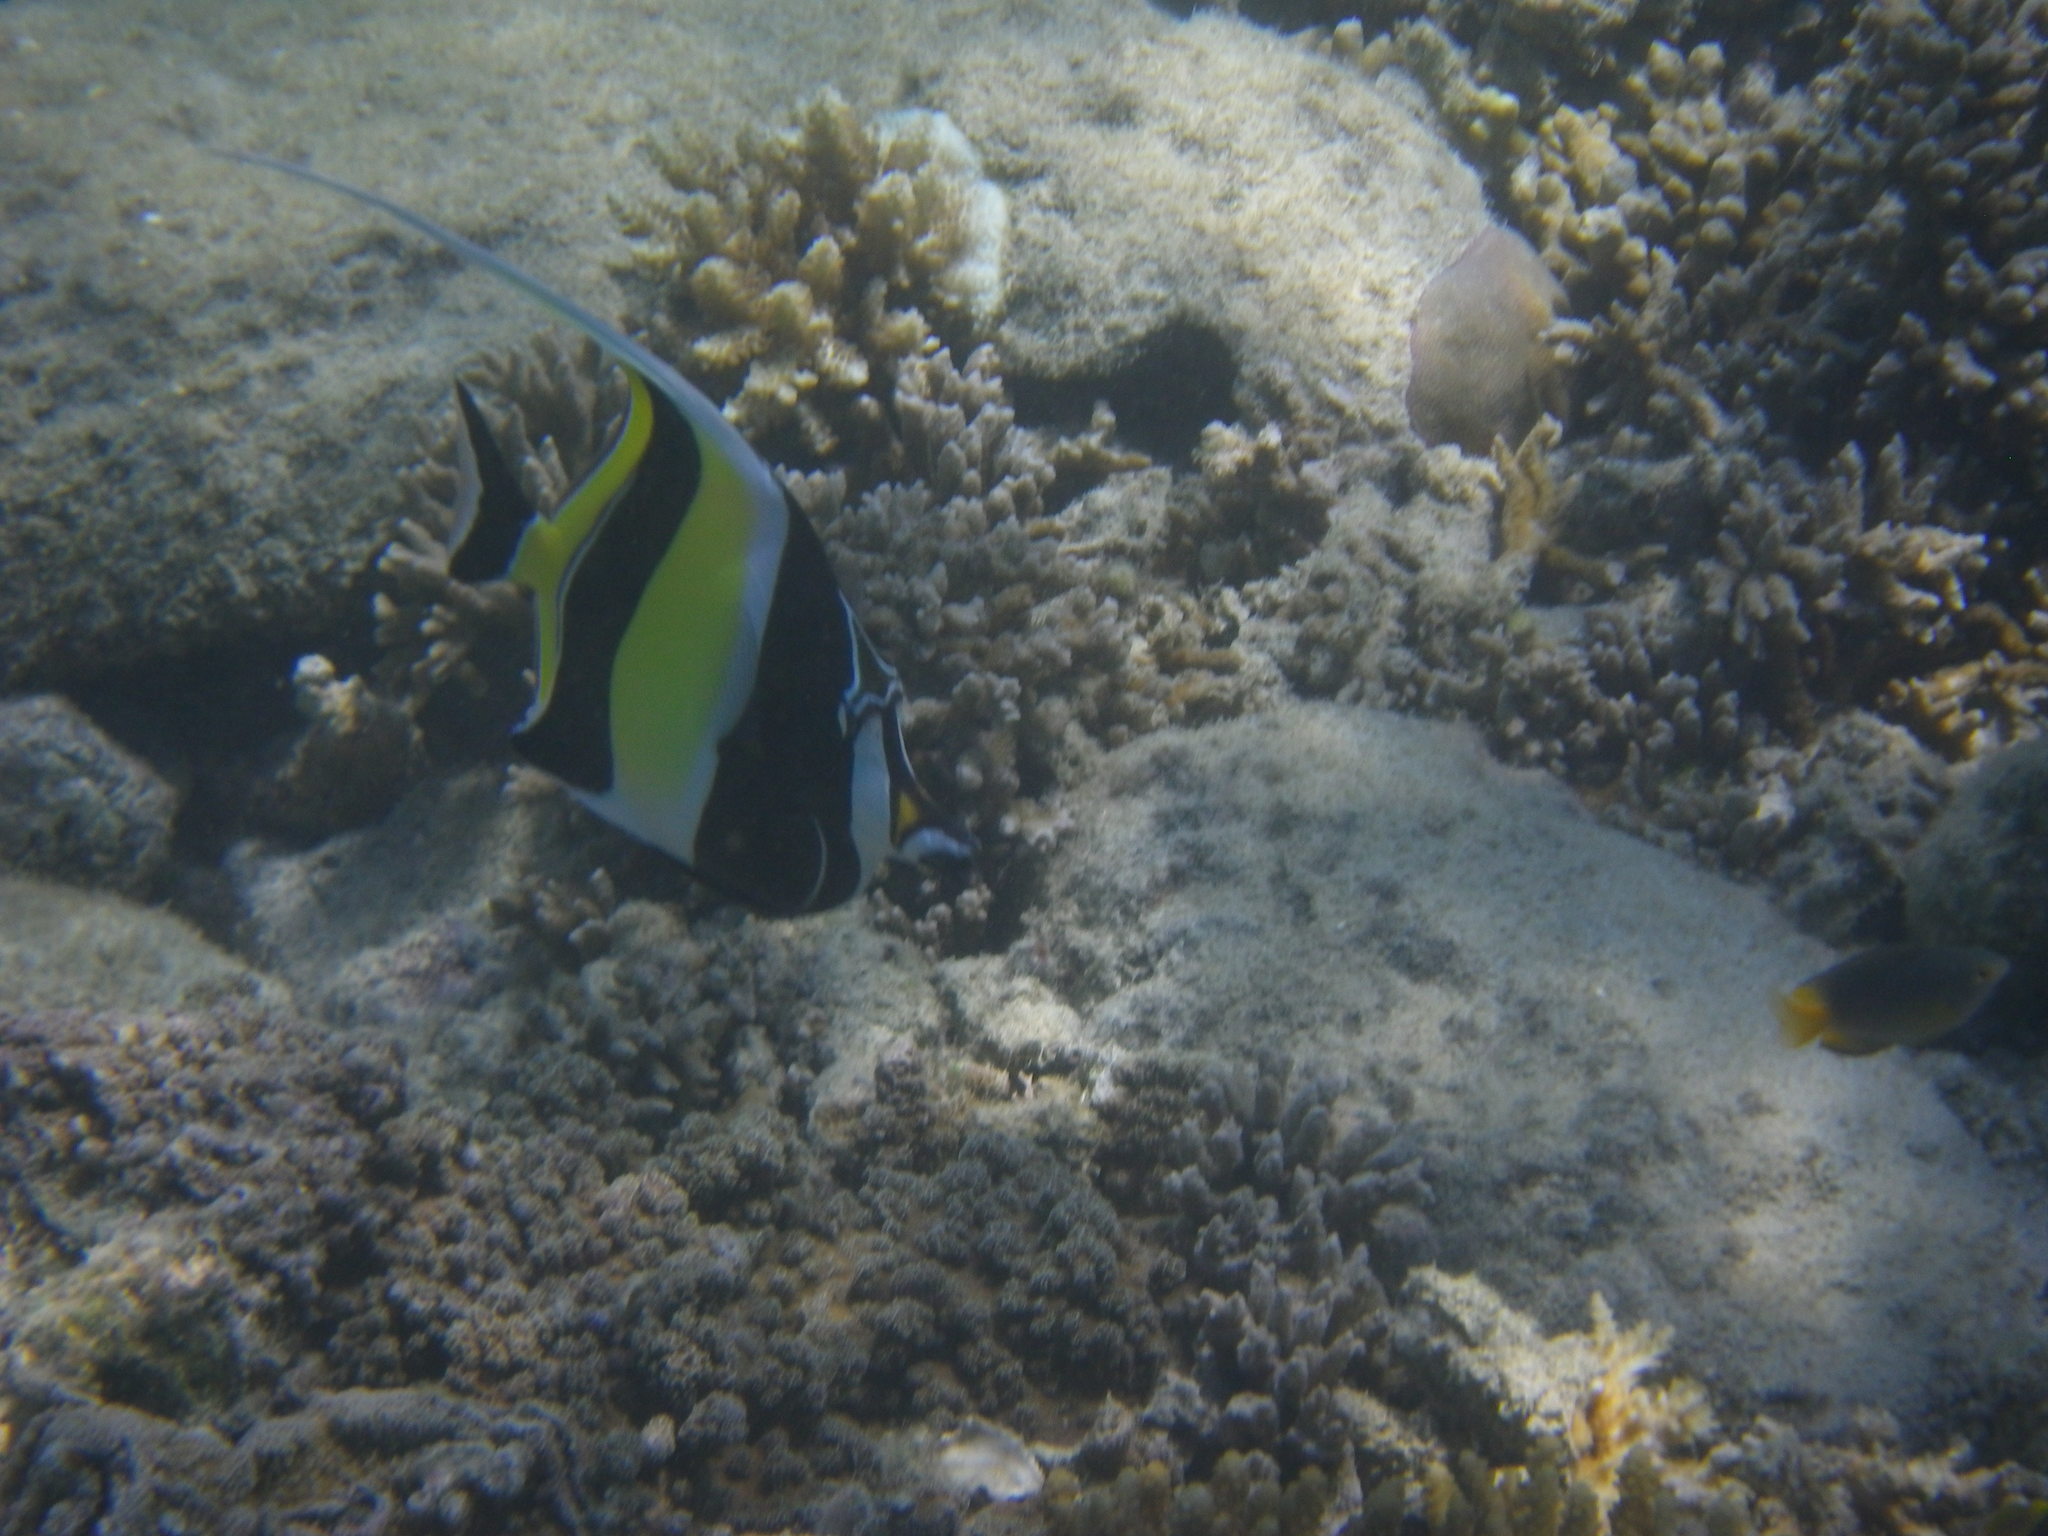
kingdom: Animalia
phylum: Chordata
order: Perciformes
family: Zanclidae
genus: Zanclus
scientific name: Zanclus cornutus
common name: Moorish idol
